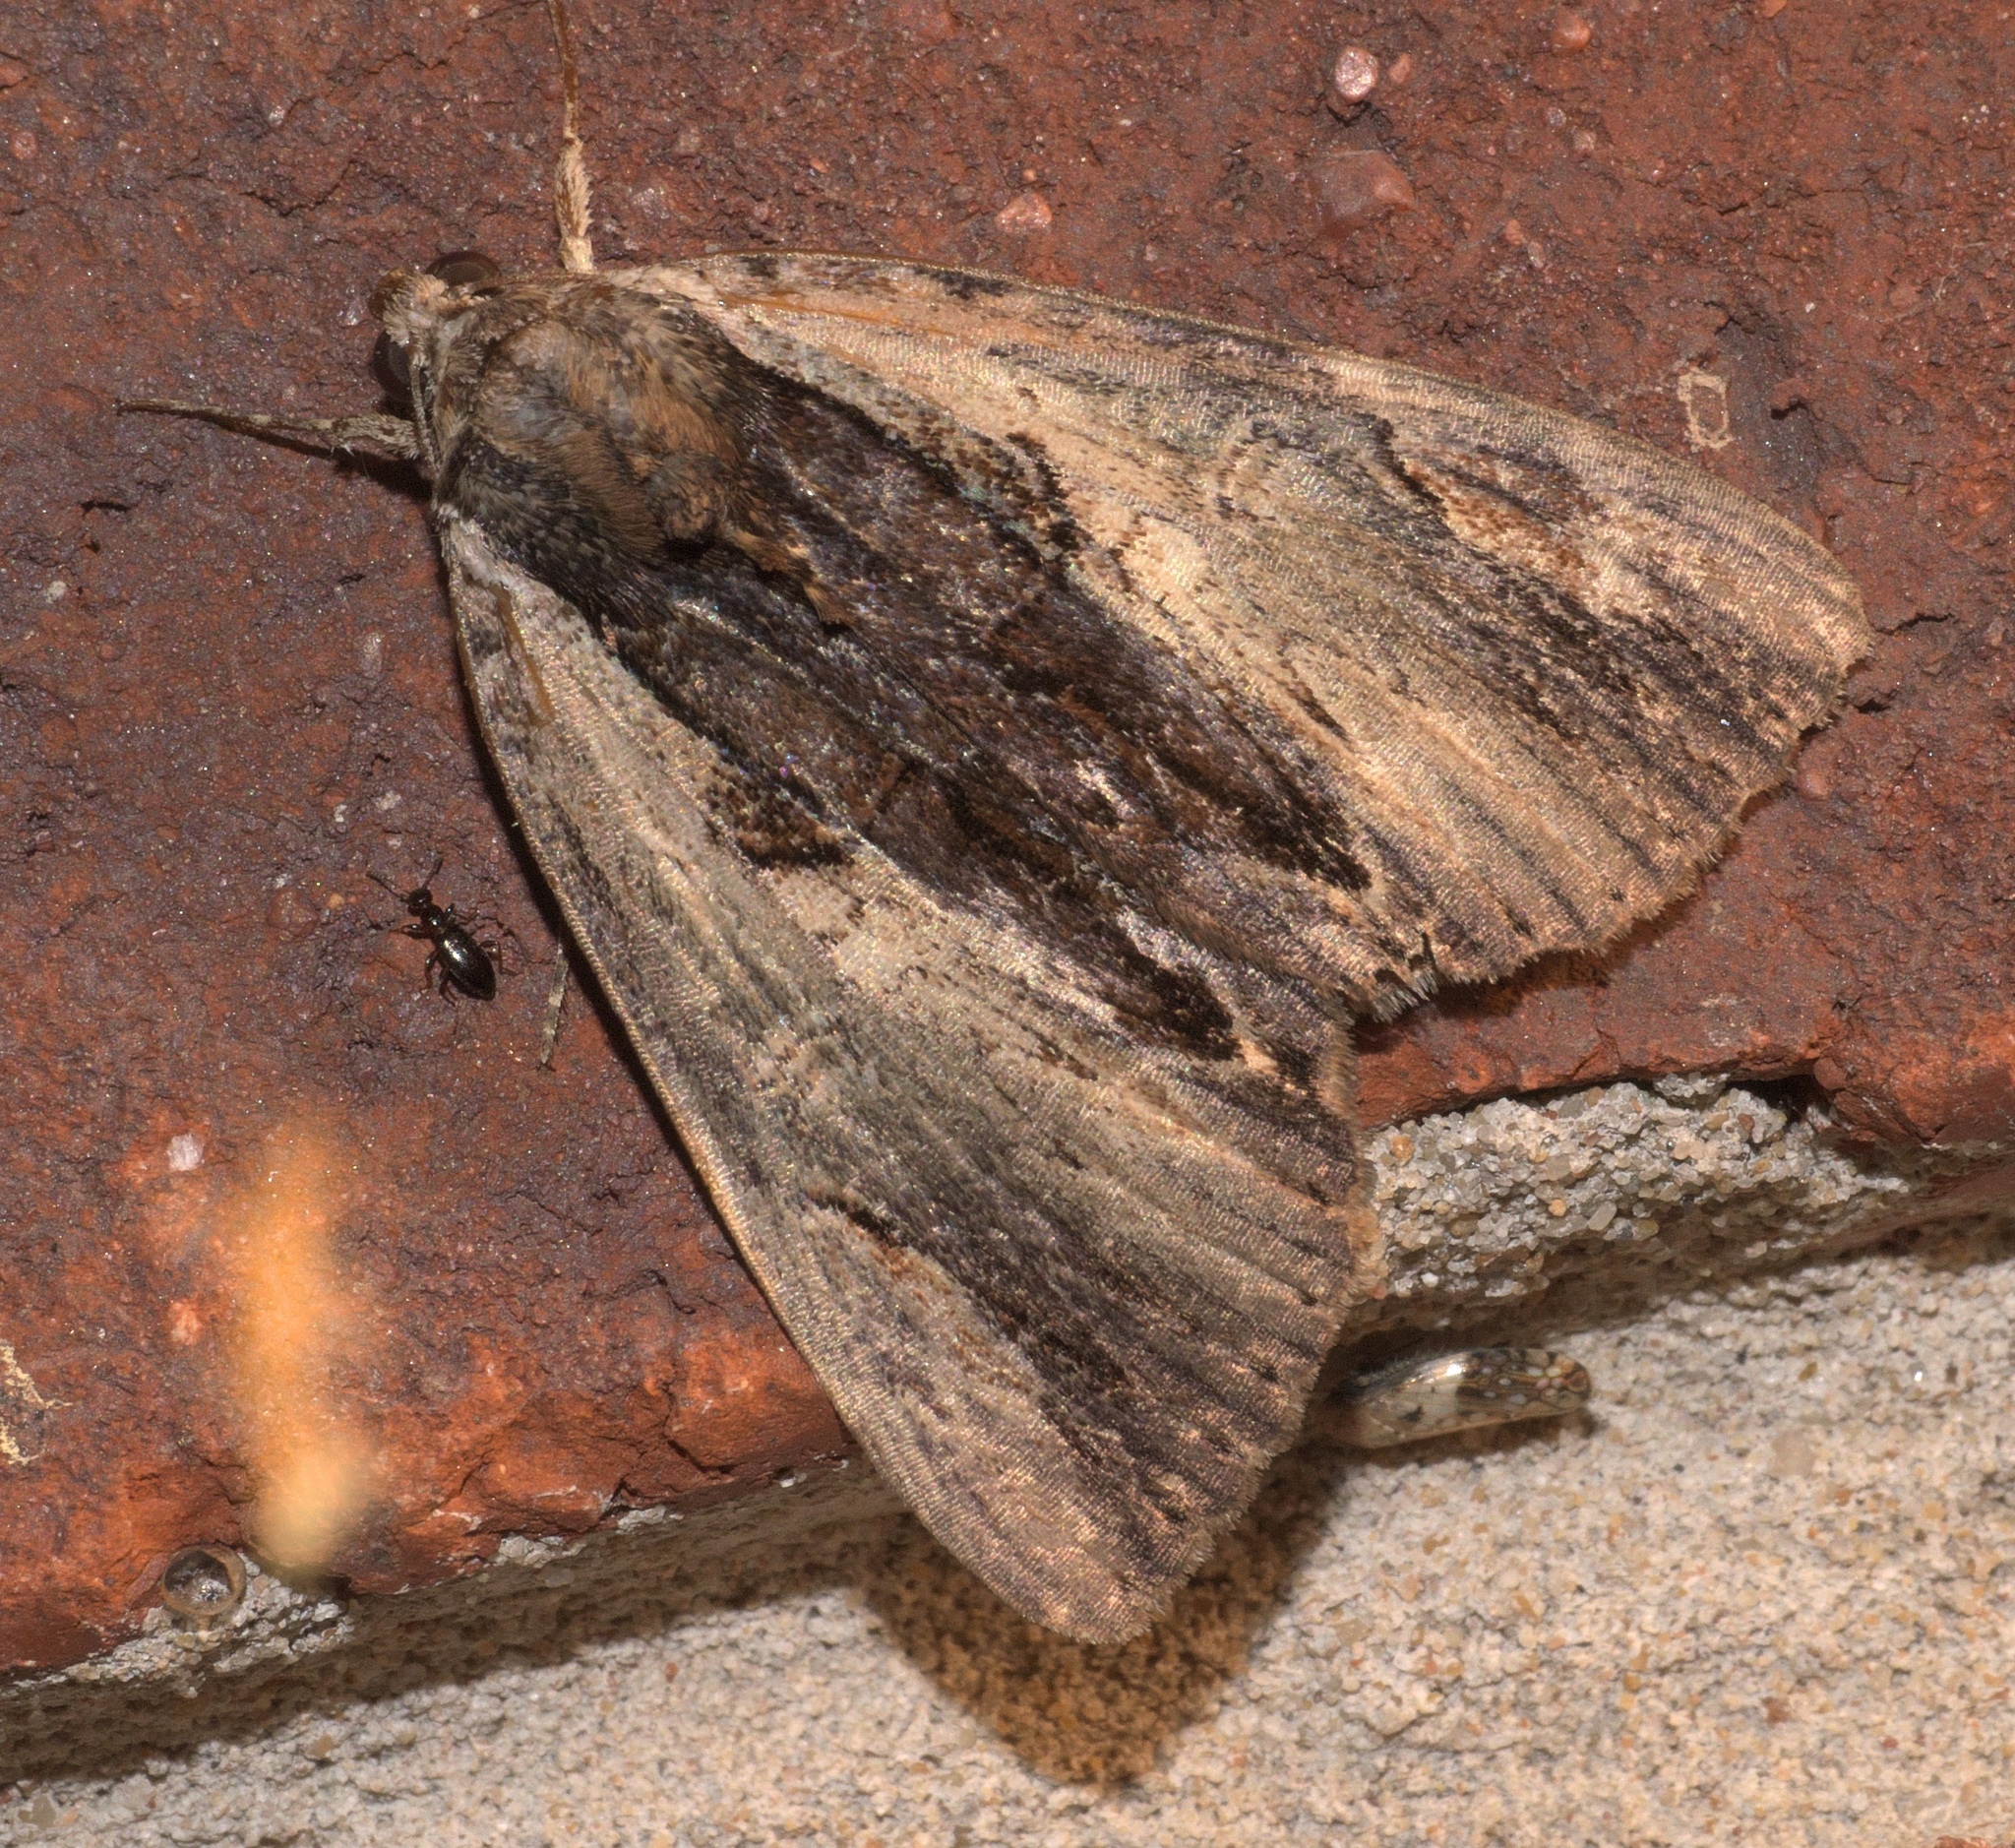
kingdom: Animalia
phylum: Arthropoda
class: Insecta
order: Lepidoptera
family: Erebidae
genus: Catocala
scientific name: Catocala ultronia
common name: Ultronia underwing
